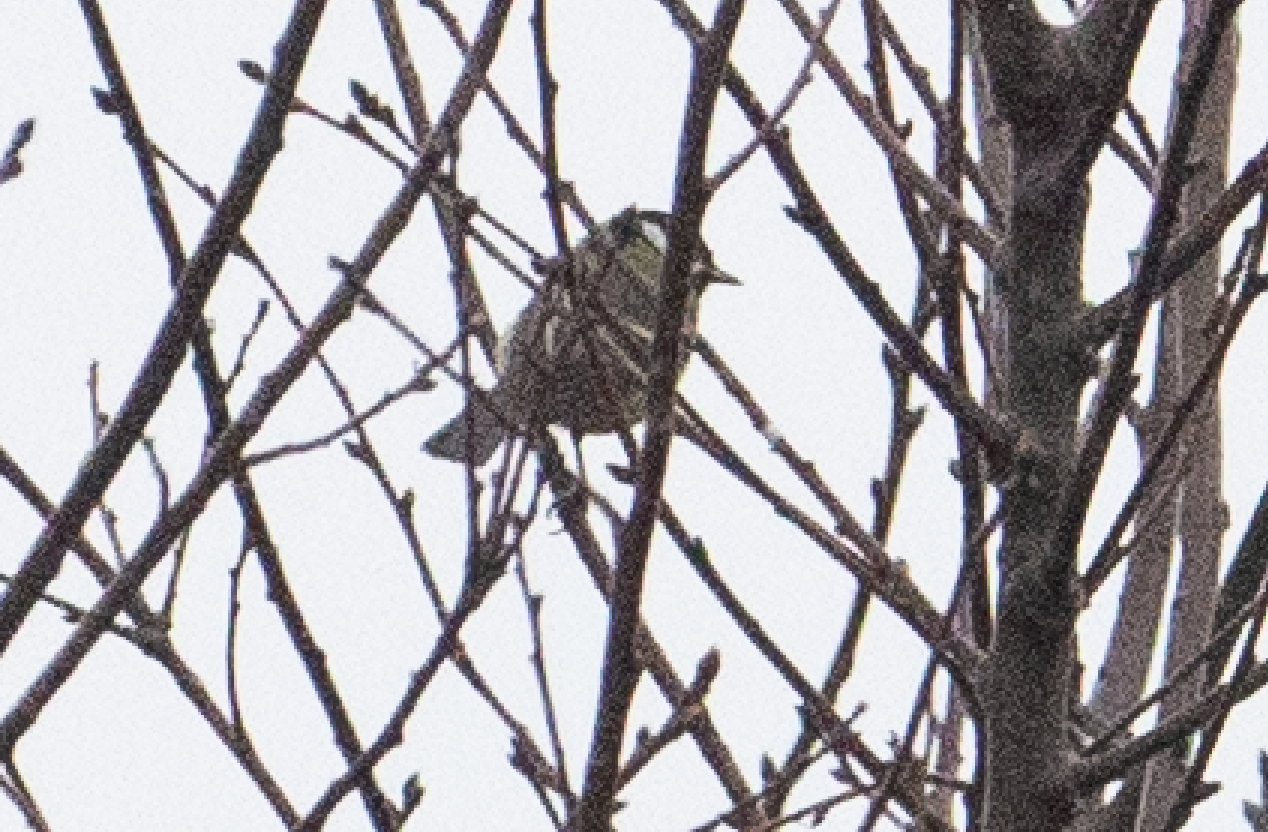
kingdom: Animalia
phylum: Chordata
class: Aves
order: Passeriformes
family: Paridae
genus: Parus
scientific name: Parus major
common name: Great tit
